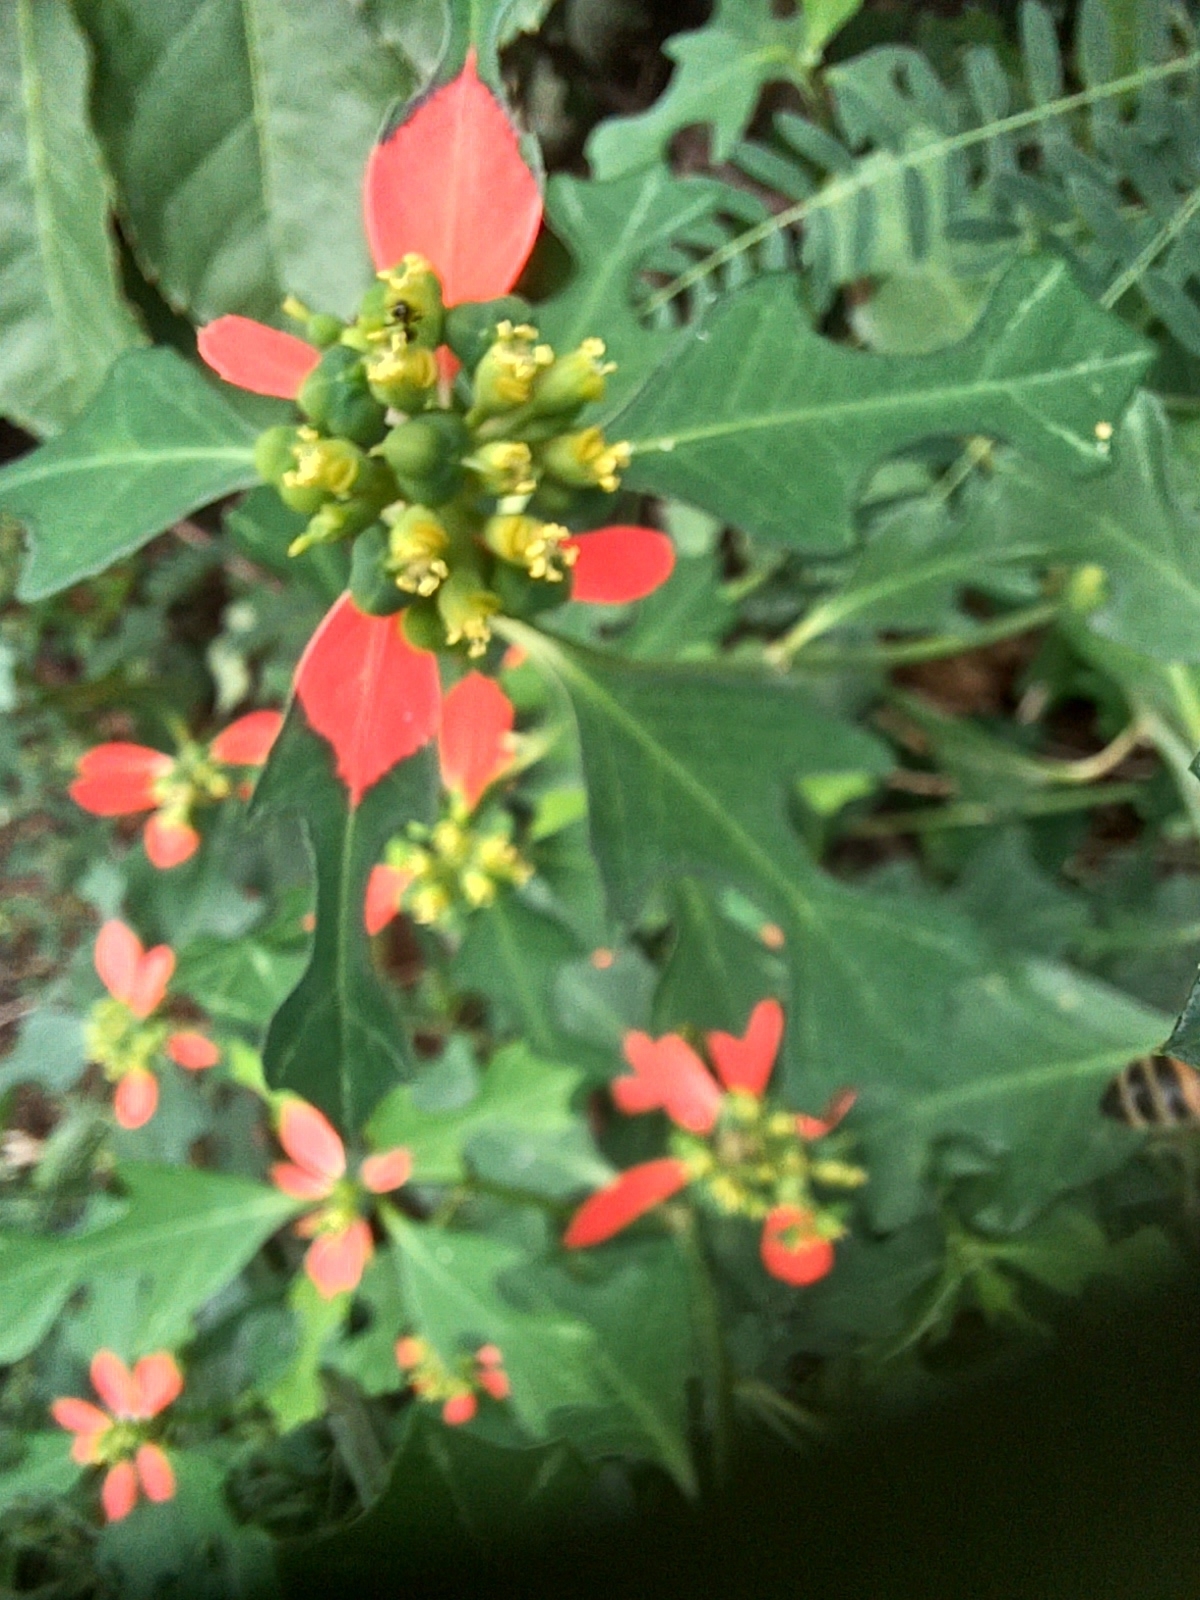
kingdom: Plantae
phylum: Tracheophyta
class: Magnoliopsida
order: Malpighiales
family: Euphorbiaceae
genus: Euphorbia
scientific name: Euphorbia heterophylla
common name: Mexican fireplant
